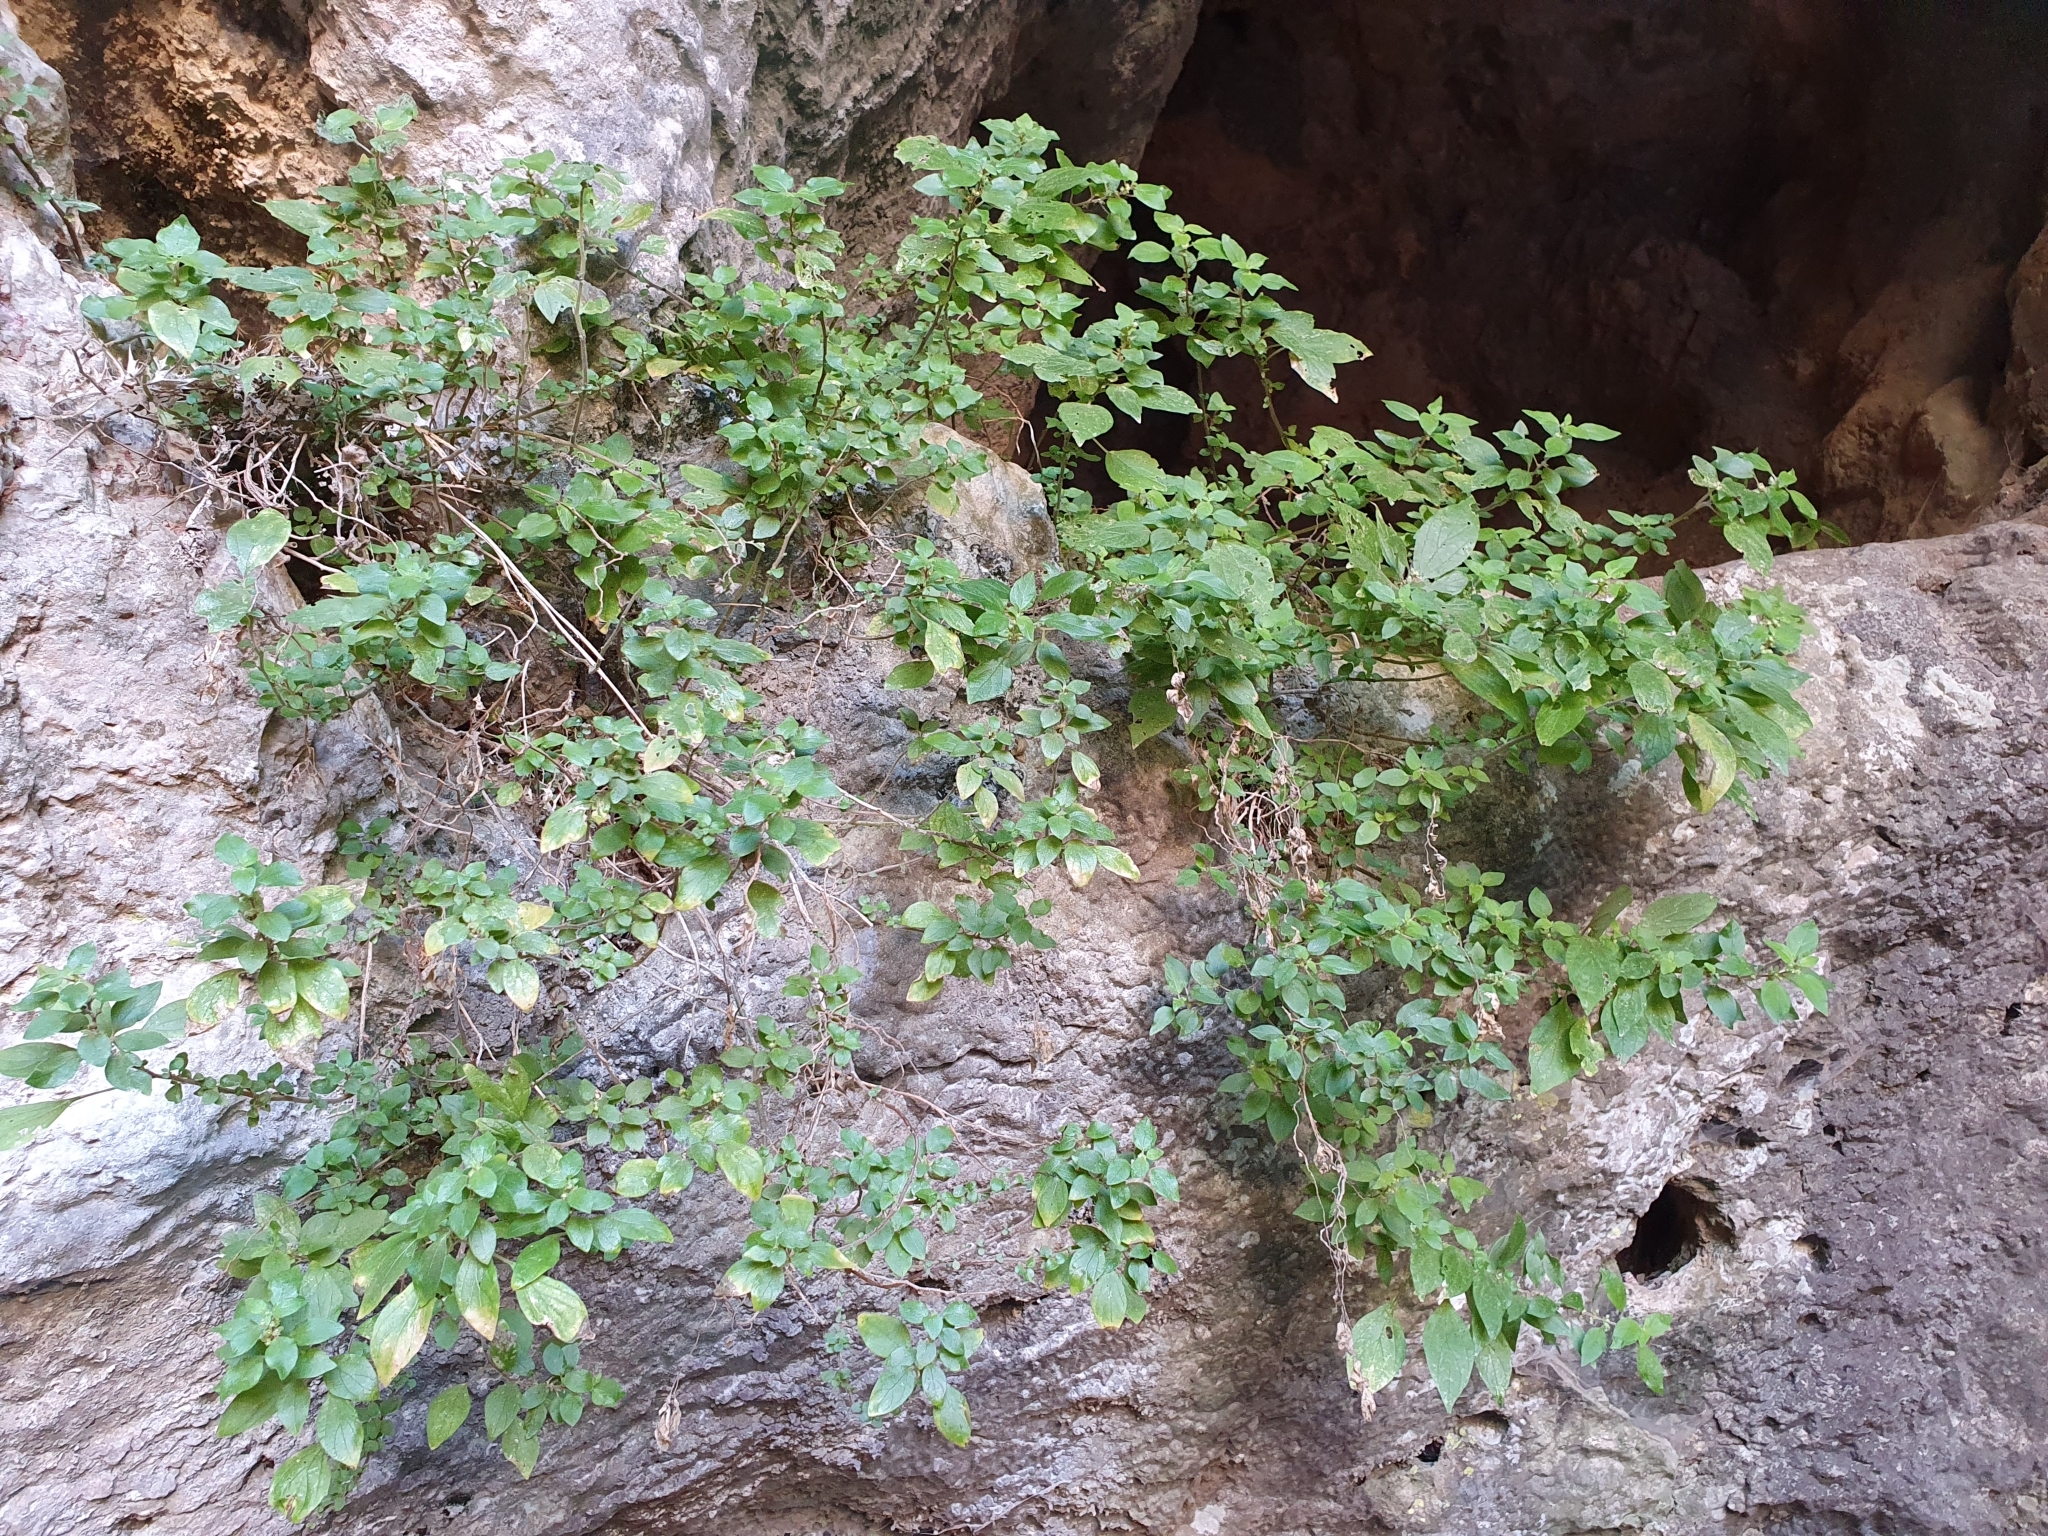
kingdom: Plantae
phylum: Tracheophyta
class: Magnoliopsida
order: Rosales
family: Urticaceae
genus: Parietaria
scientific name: Parietaria judaica
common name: Pellitory-of-the-wall
